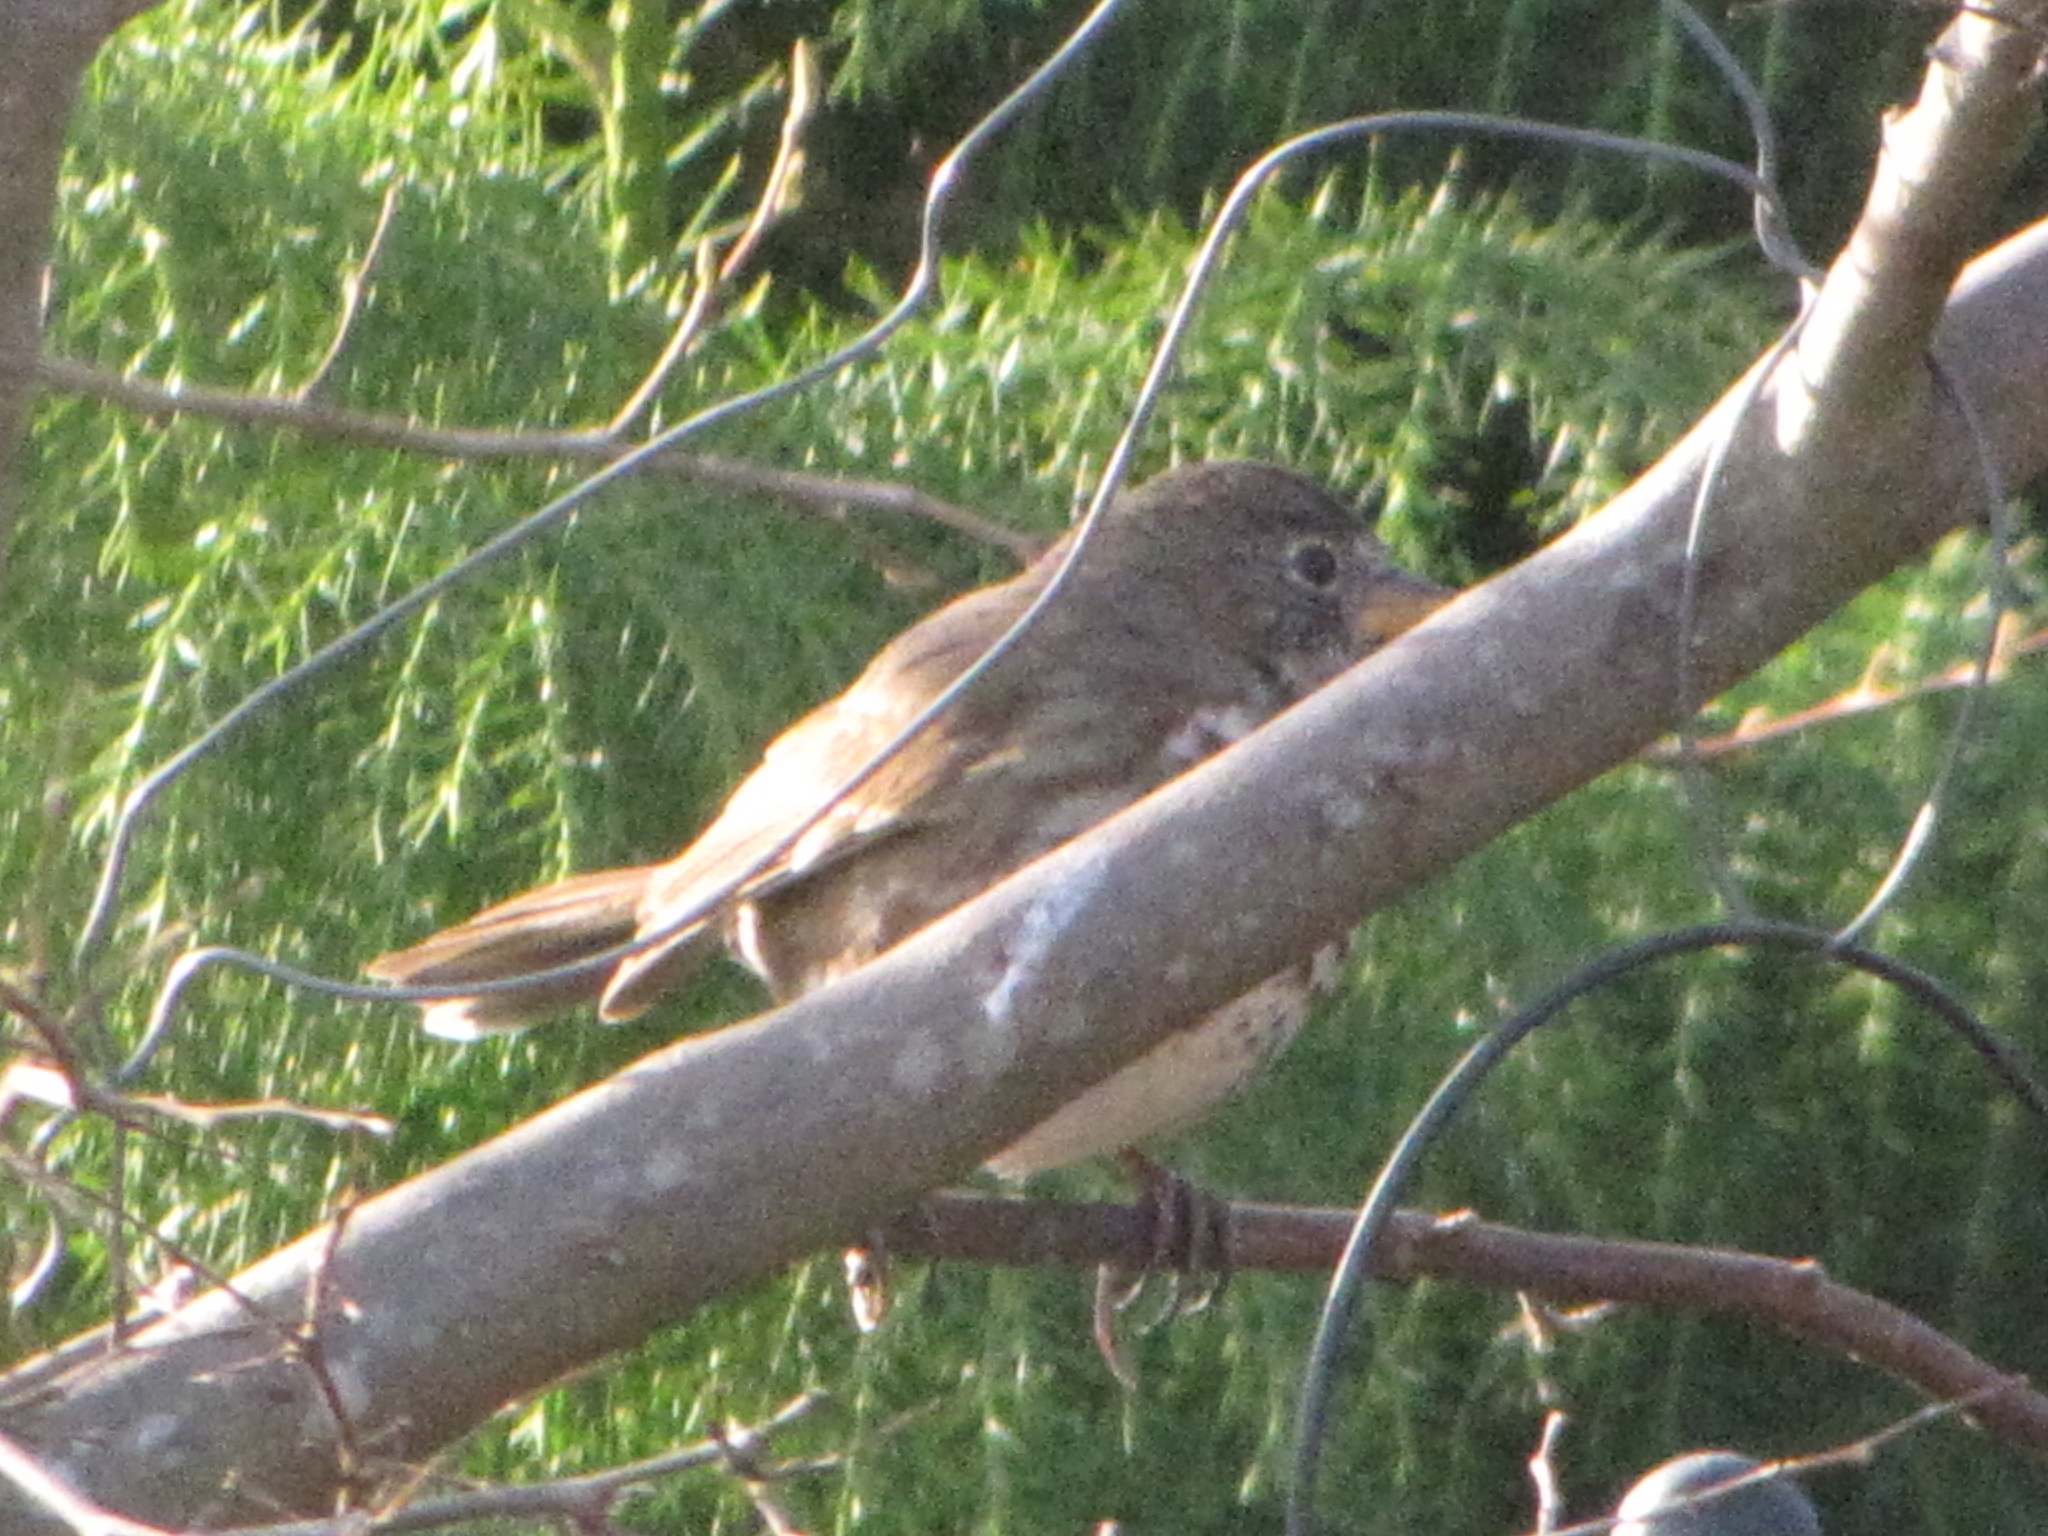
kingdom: Animalia
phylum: Chordata
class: Aves
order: Passeriformes
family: Passerellidae
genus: Passerella
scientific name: Passerella iliaca
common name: Fox sparrow
